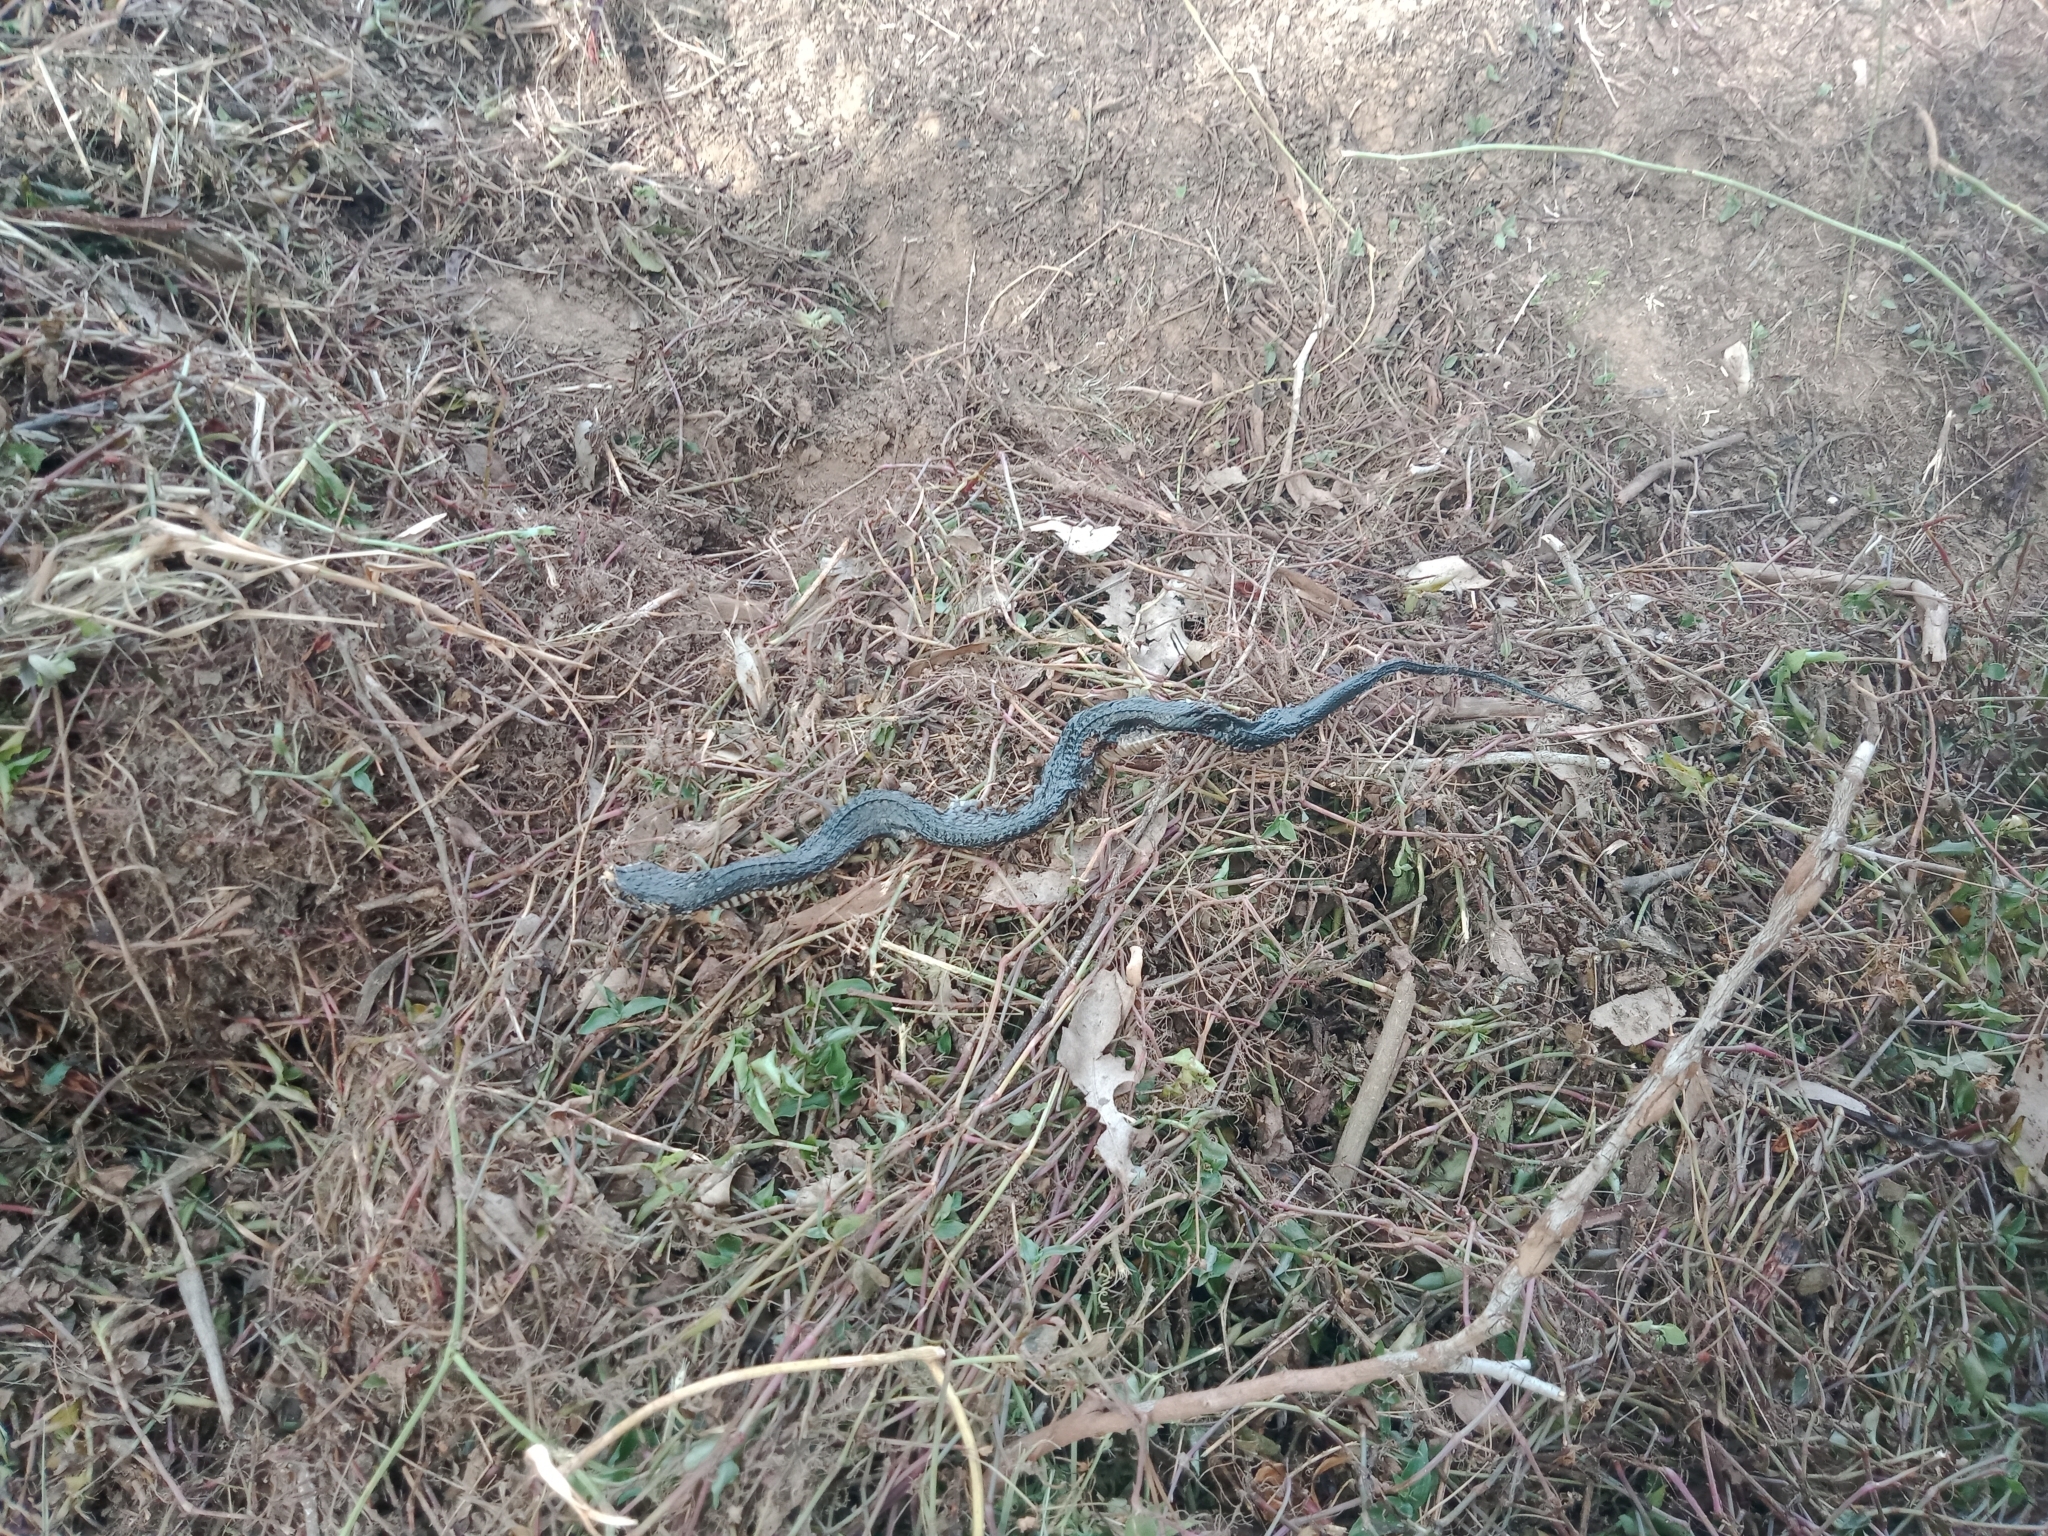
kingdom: Animalia
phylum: Chordata
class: Squamata
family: Elapidae
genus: Pseudechis
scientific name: Pseudechis porphyriacus
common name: Australian black snake
